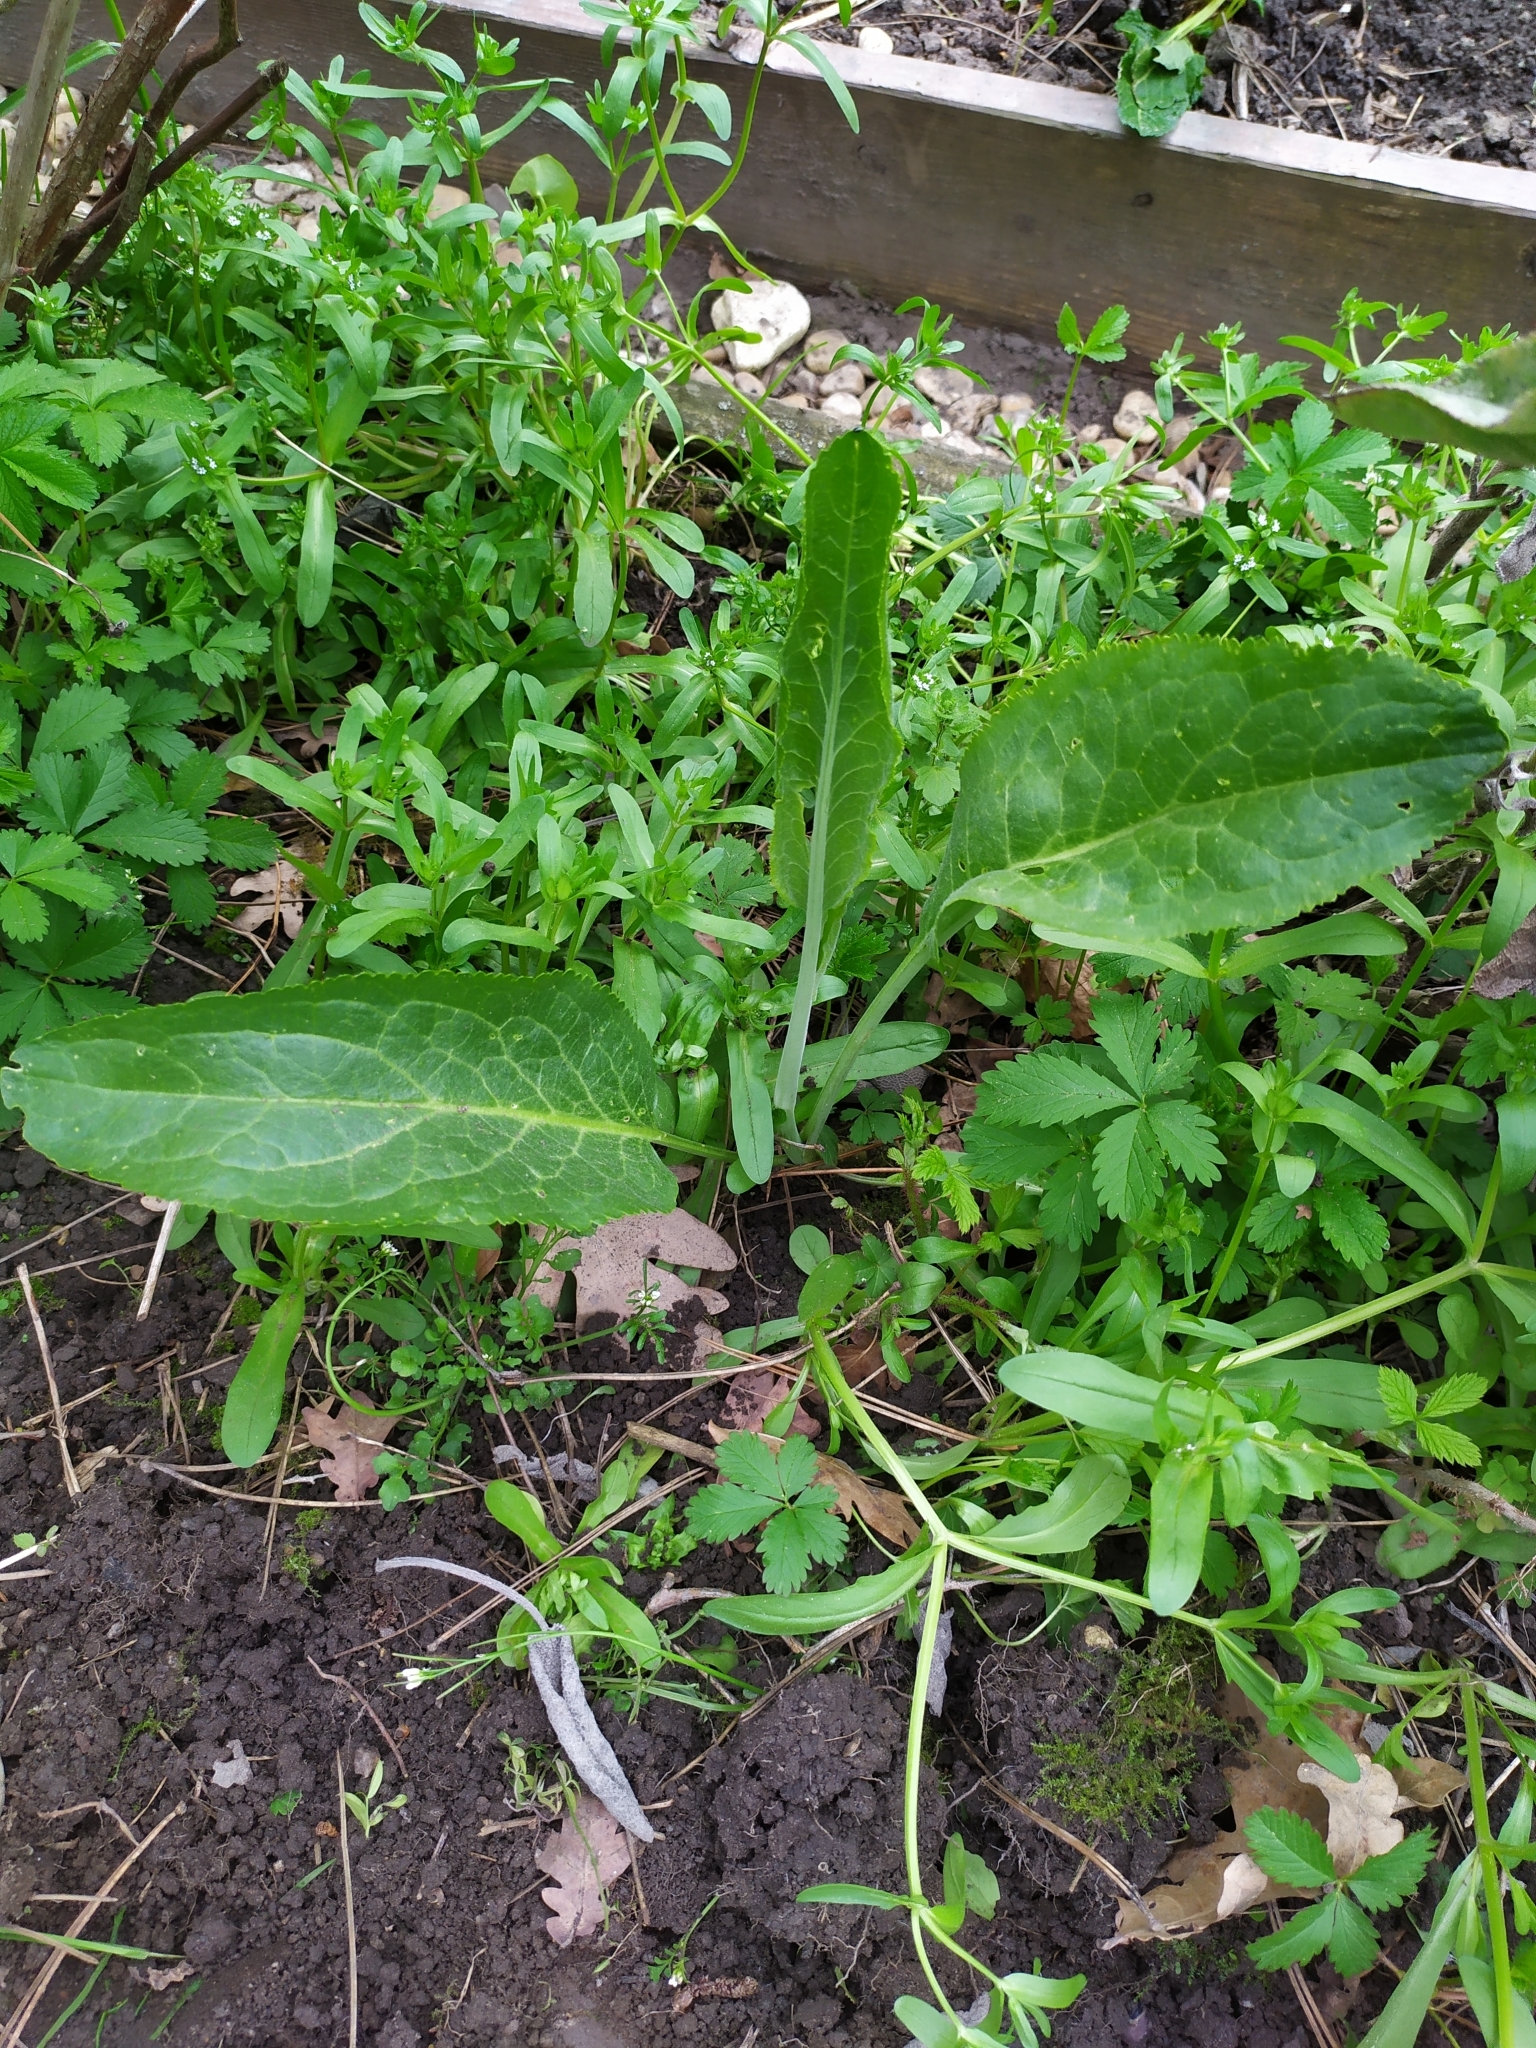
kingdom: Plantae
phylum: Tracheophyta
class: Magnoliopsida
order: Brassicales
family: Brassicaceae
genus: Armoracia
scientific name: Armoracia rusticana
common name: Horseradish
